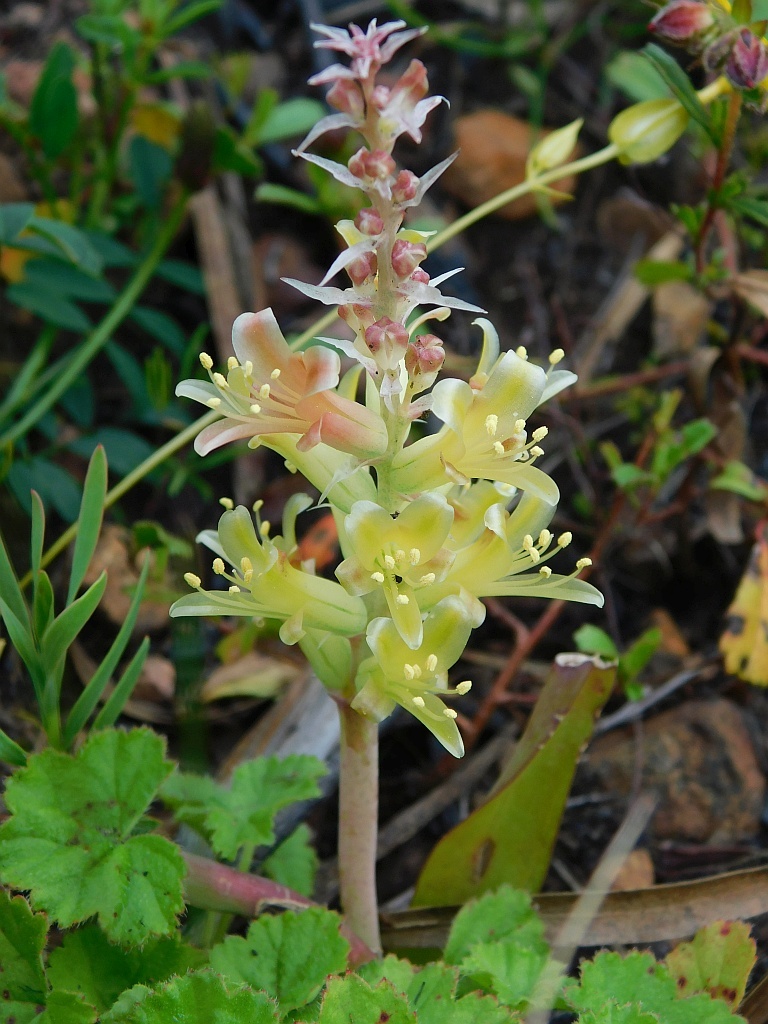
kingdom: Plantae
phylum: Tracheophyta
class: Liliopsida
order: Asparagales
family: Asparagaceae
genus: Lachenalia
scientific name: Lachenalia orchioides
